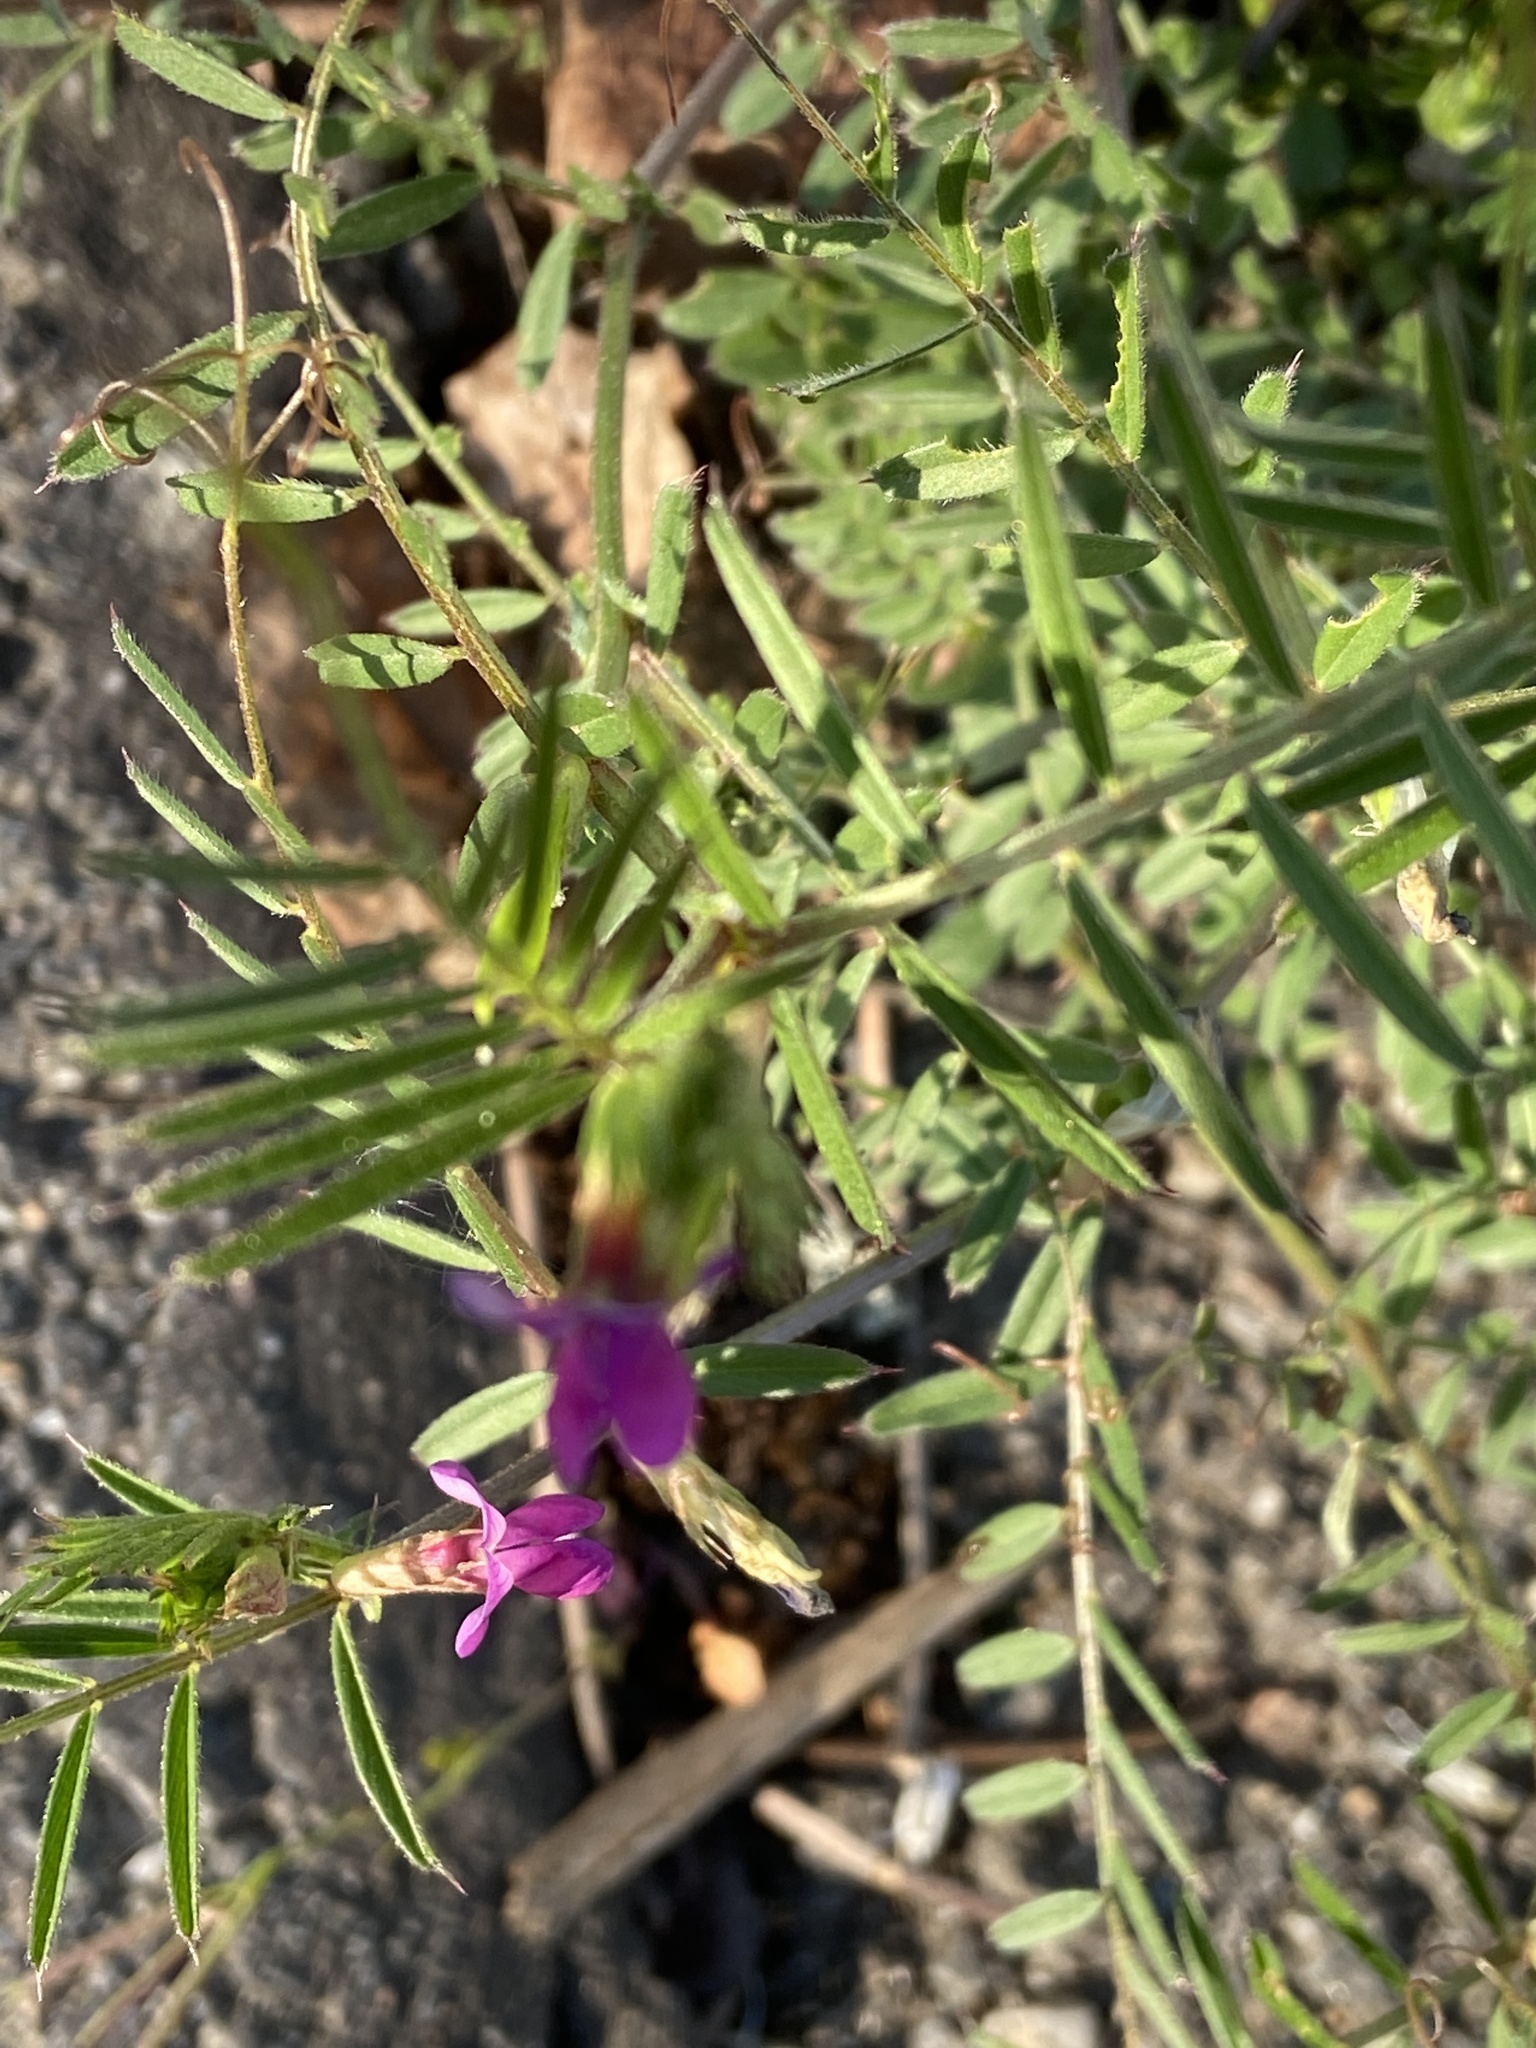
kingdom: Plantae
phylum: Tracheophyta
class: Magnoliopsida
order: Fabales
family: Fabaceae
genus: Vicia
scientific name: Vicia sativa
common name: Garden vetch
